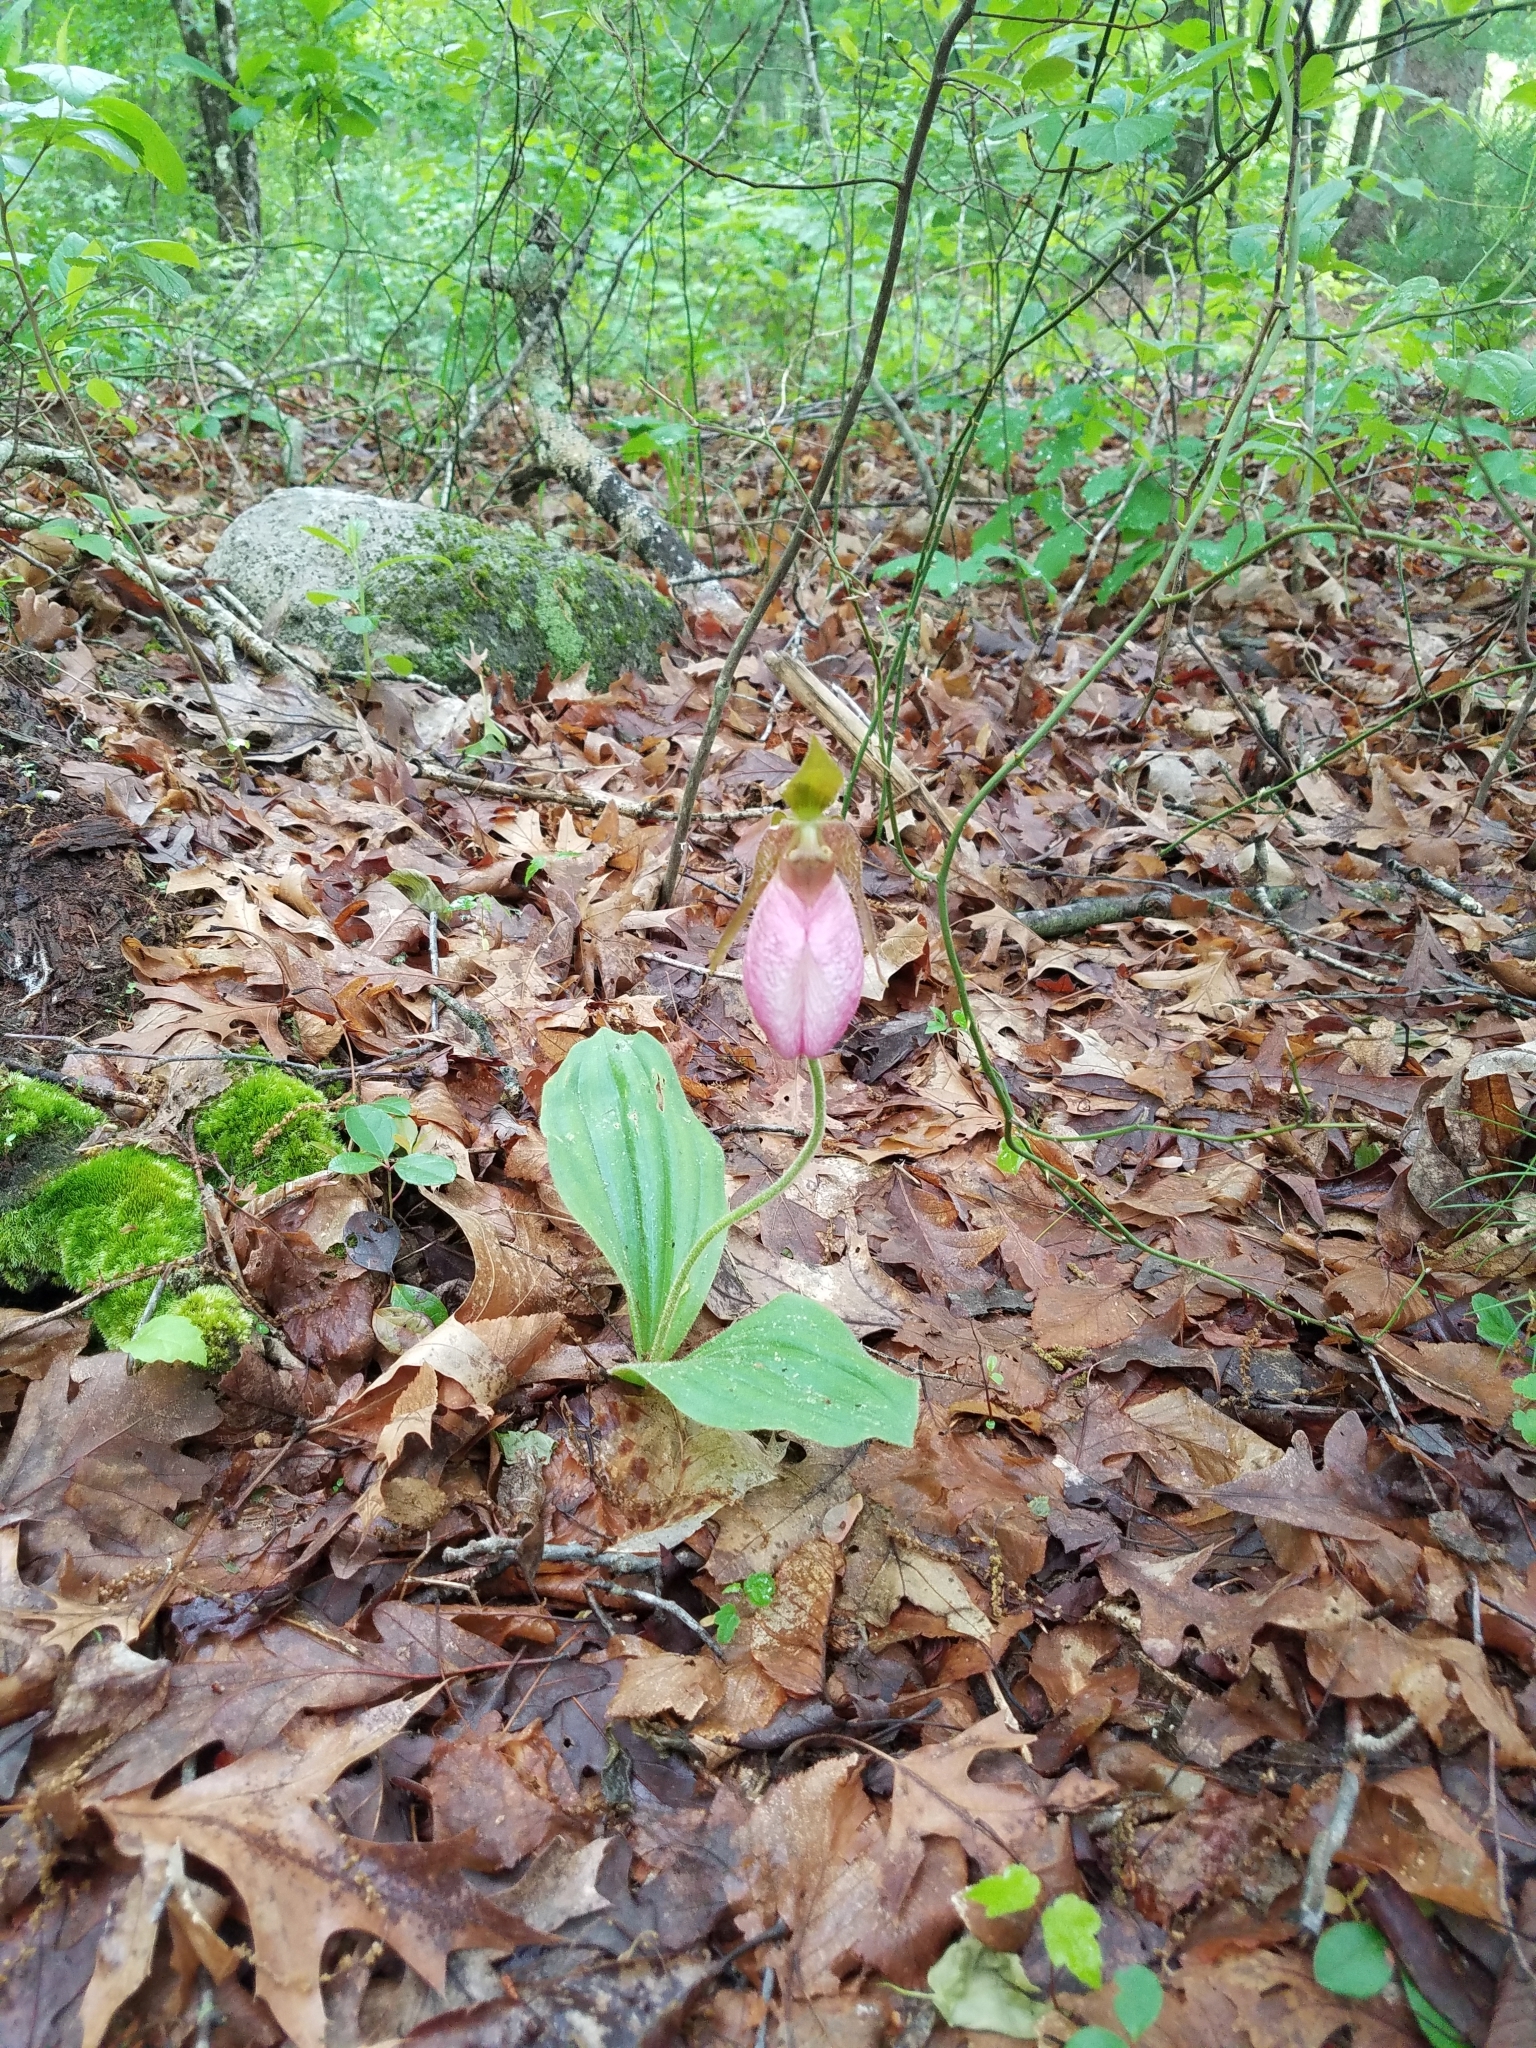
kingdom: Plantae
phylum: Tracheophyta
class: Liliopsida
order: Asparagales
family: Orchidaceae
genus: Cypripedium
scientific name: Cypripedium acaule
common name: Pink lady's-slipper
